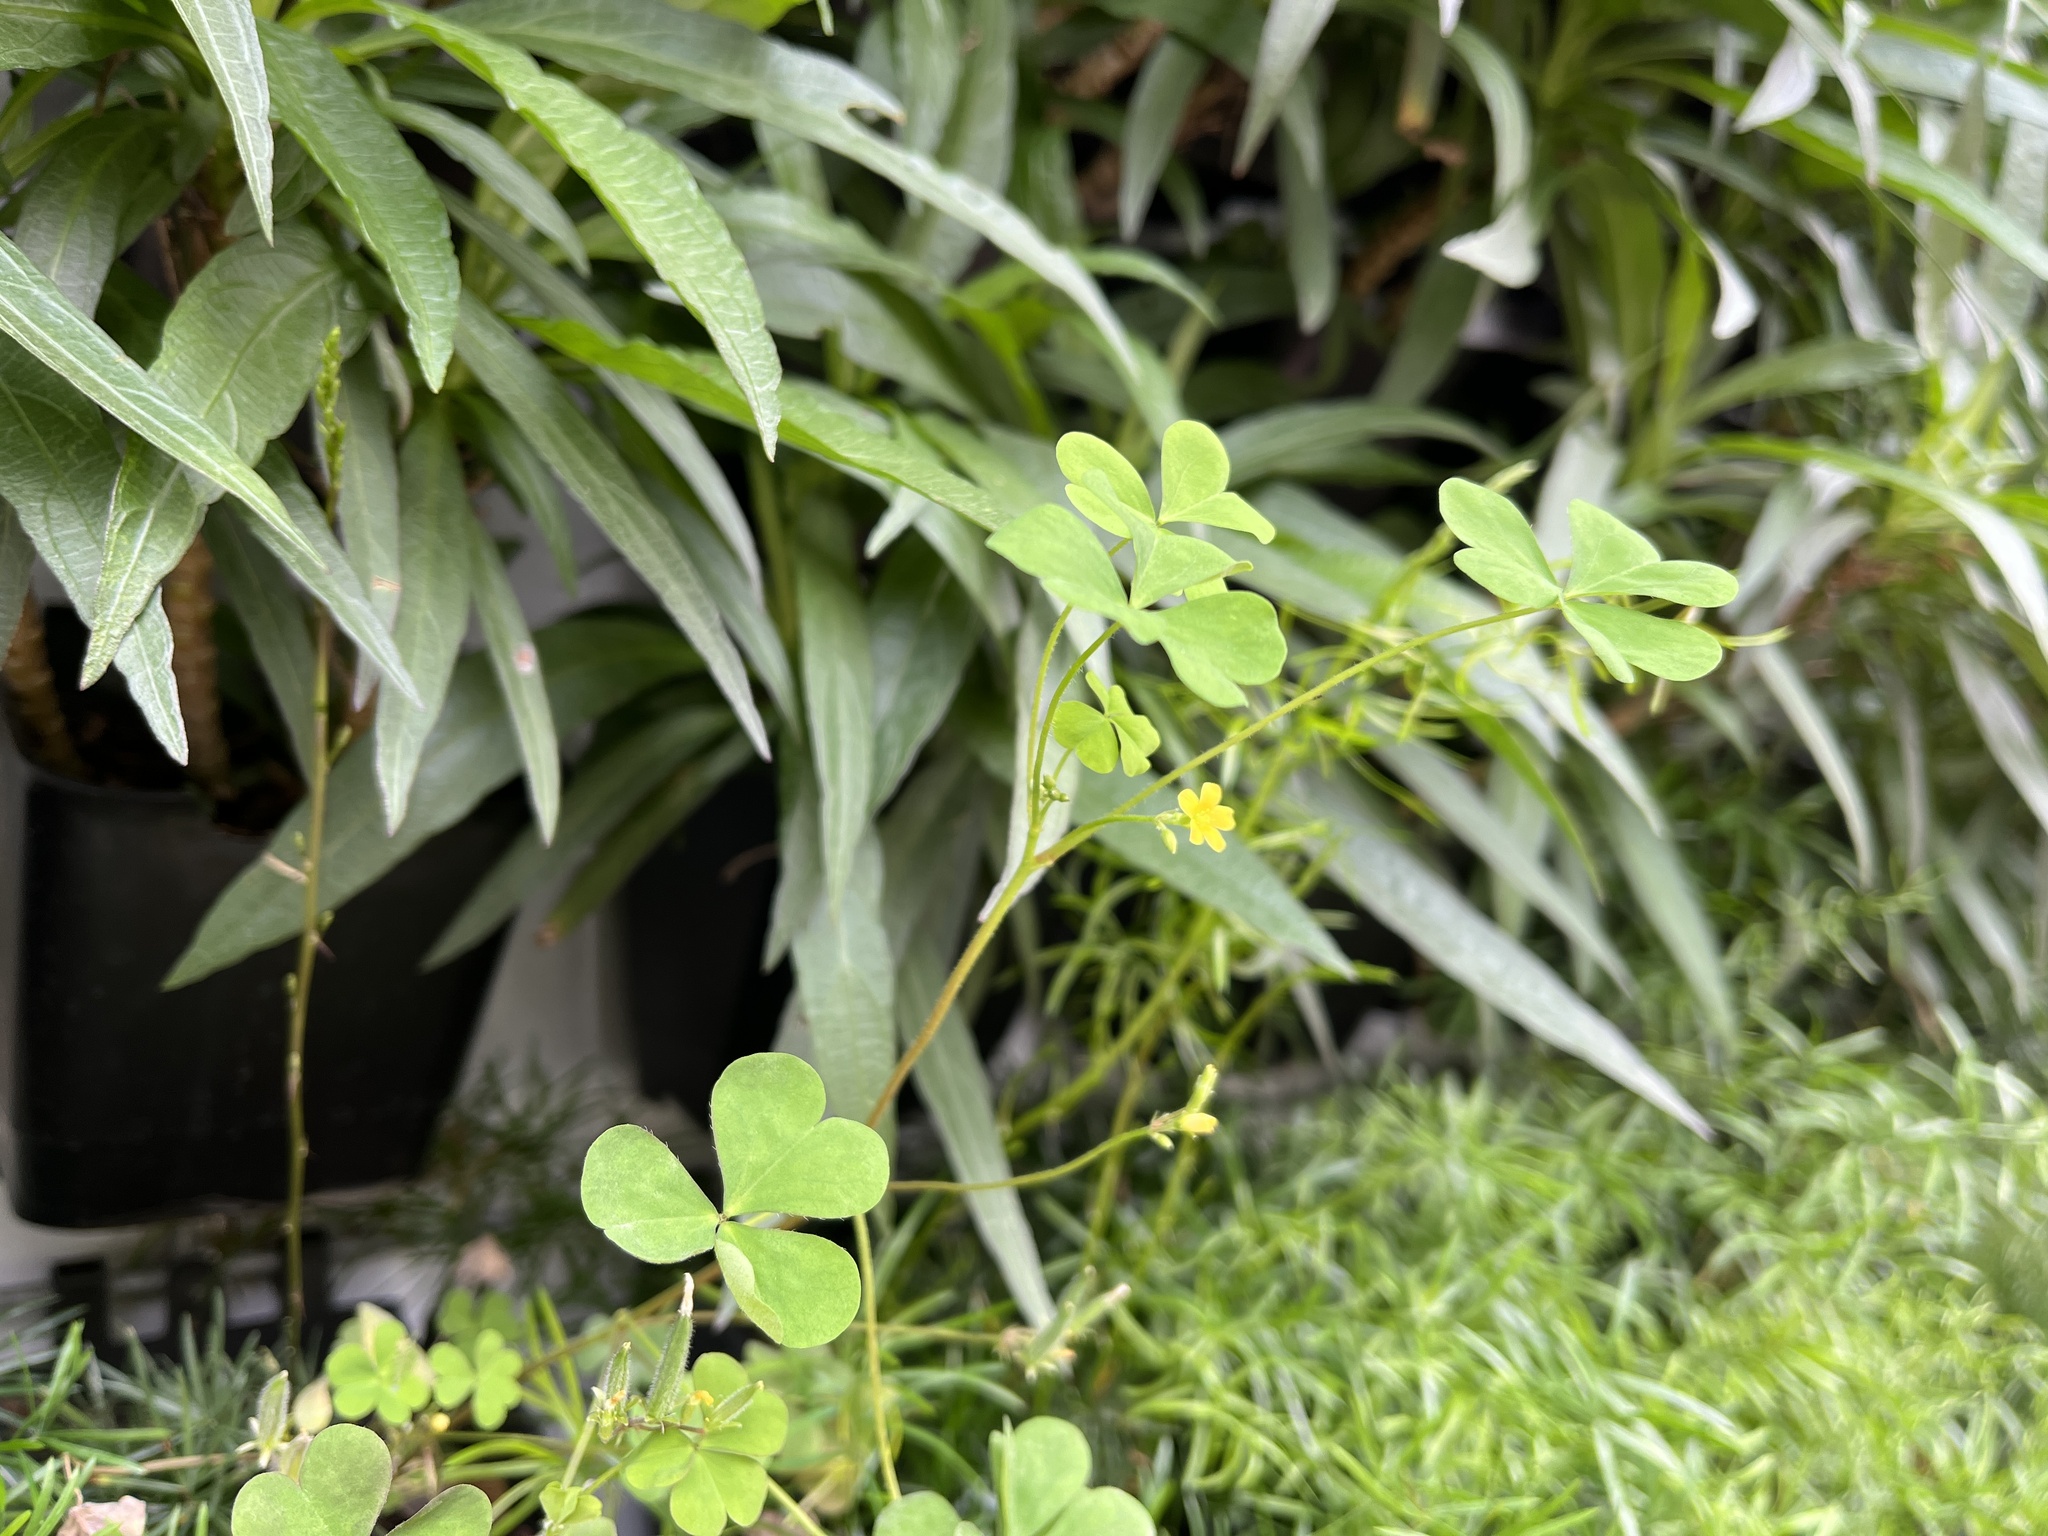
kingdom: Plantae
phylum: Tracheophyta
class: Magnoliopsida
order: Oxalidales
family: Oxalidaceae
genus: Oxalis
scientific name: Oxalis corniculata
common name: Procumbent yellow-sorrel
